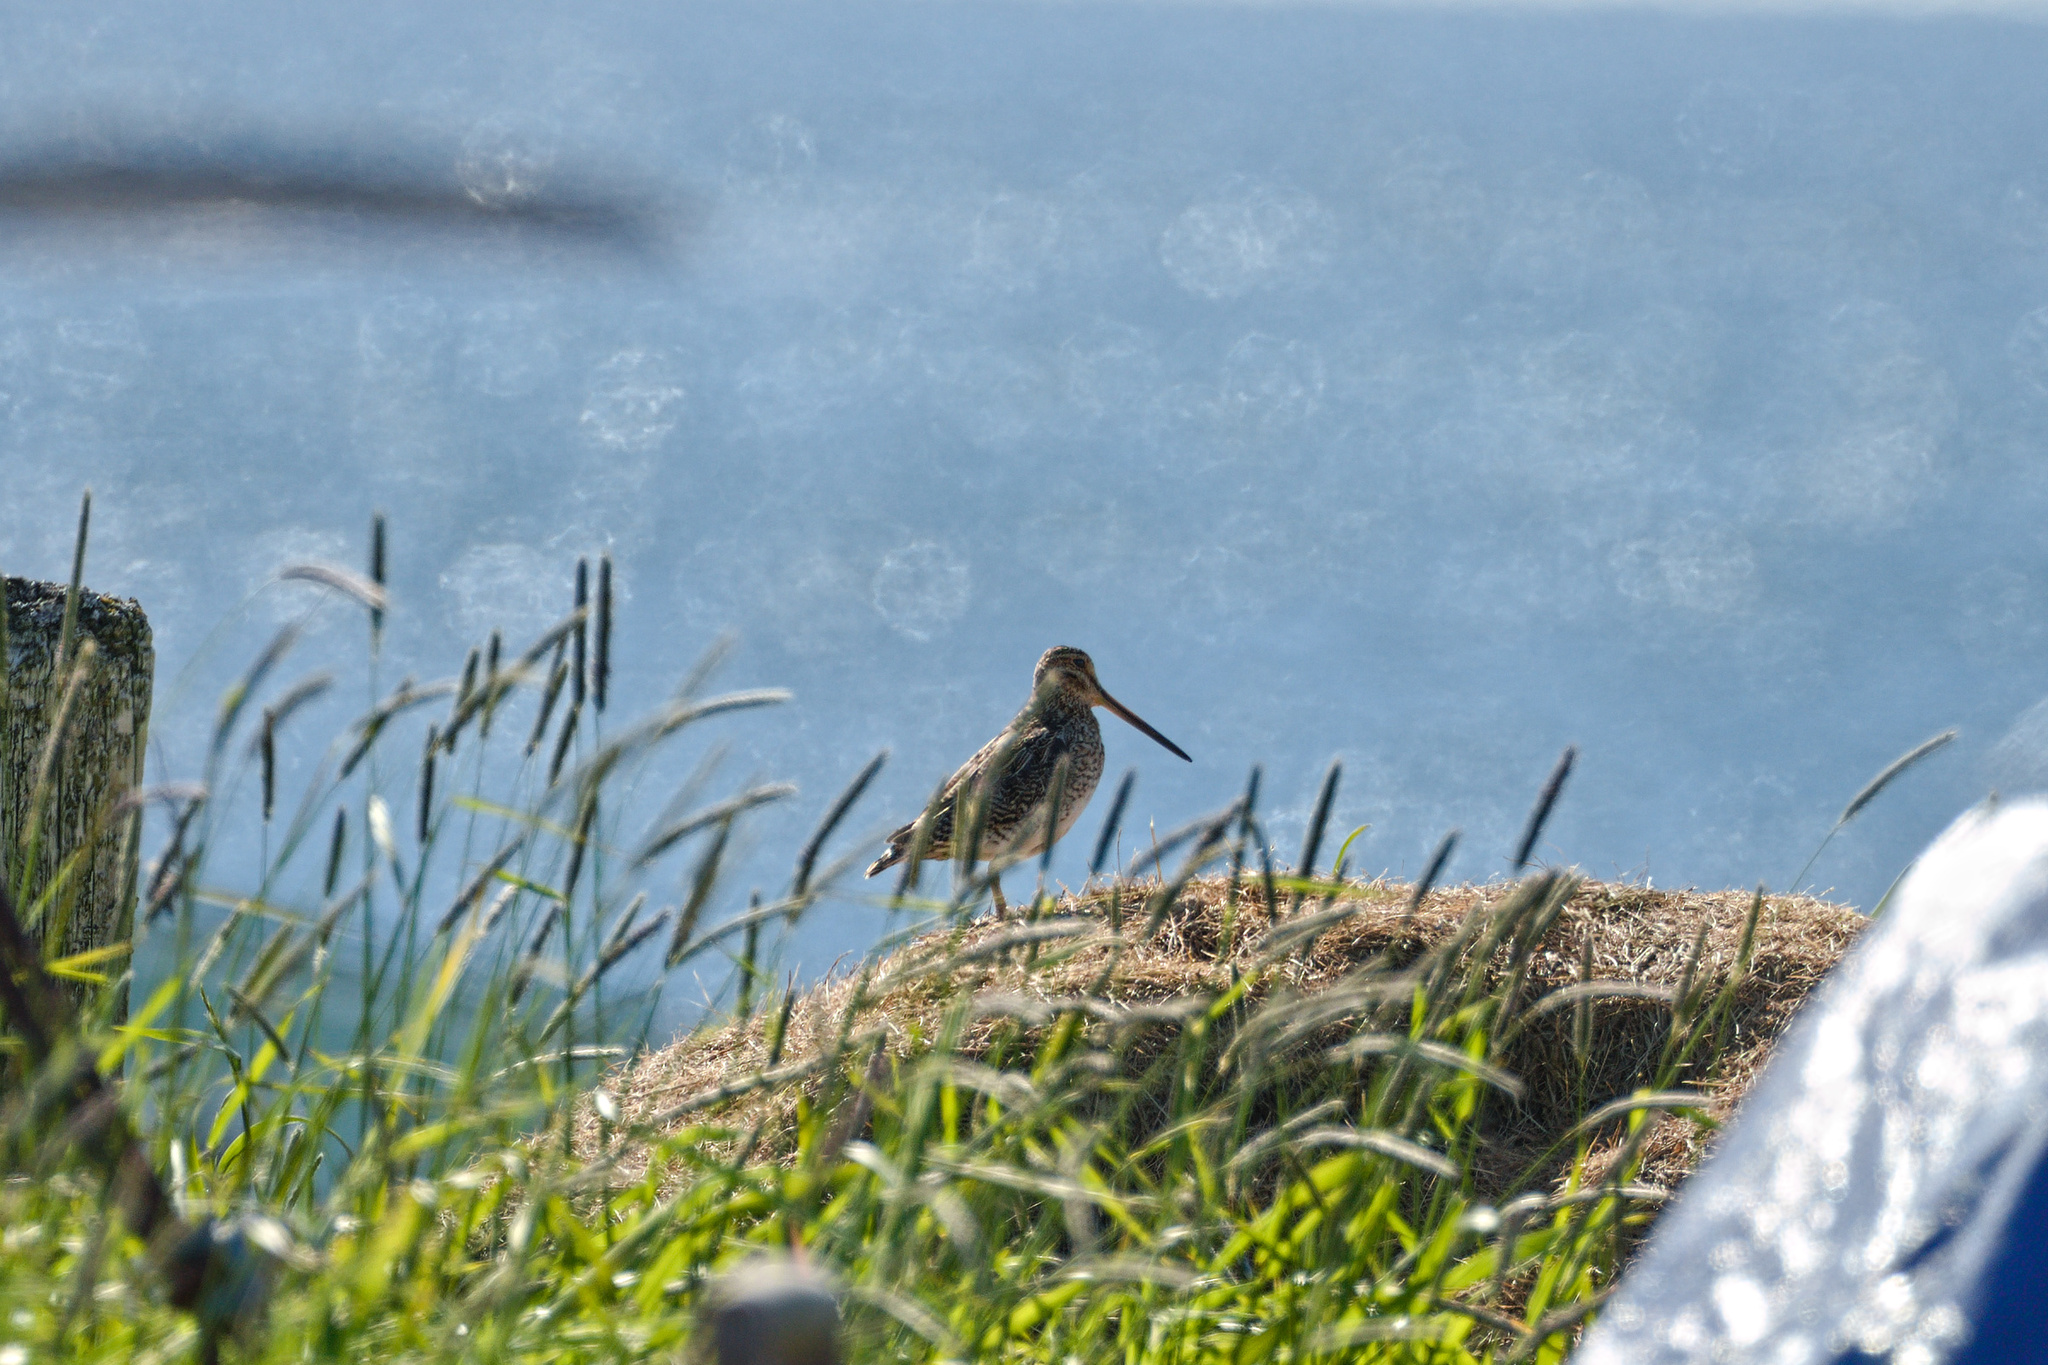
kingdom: Animalia
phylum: Chordata
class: Aves
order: Charadriiformes
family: Scolopacidae
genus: Gallinago
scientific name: Gallinago gallinago
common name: Common snipe
